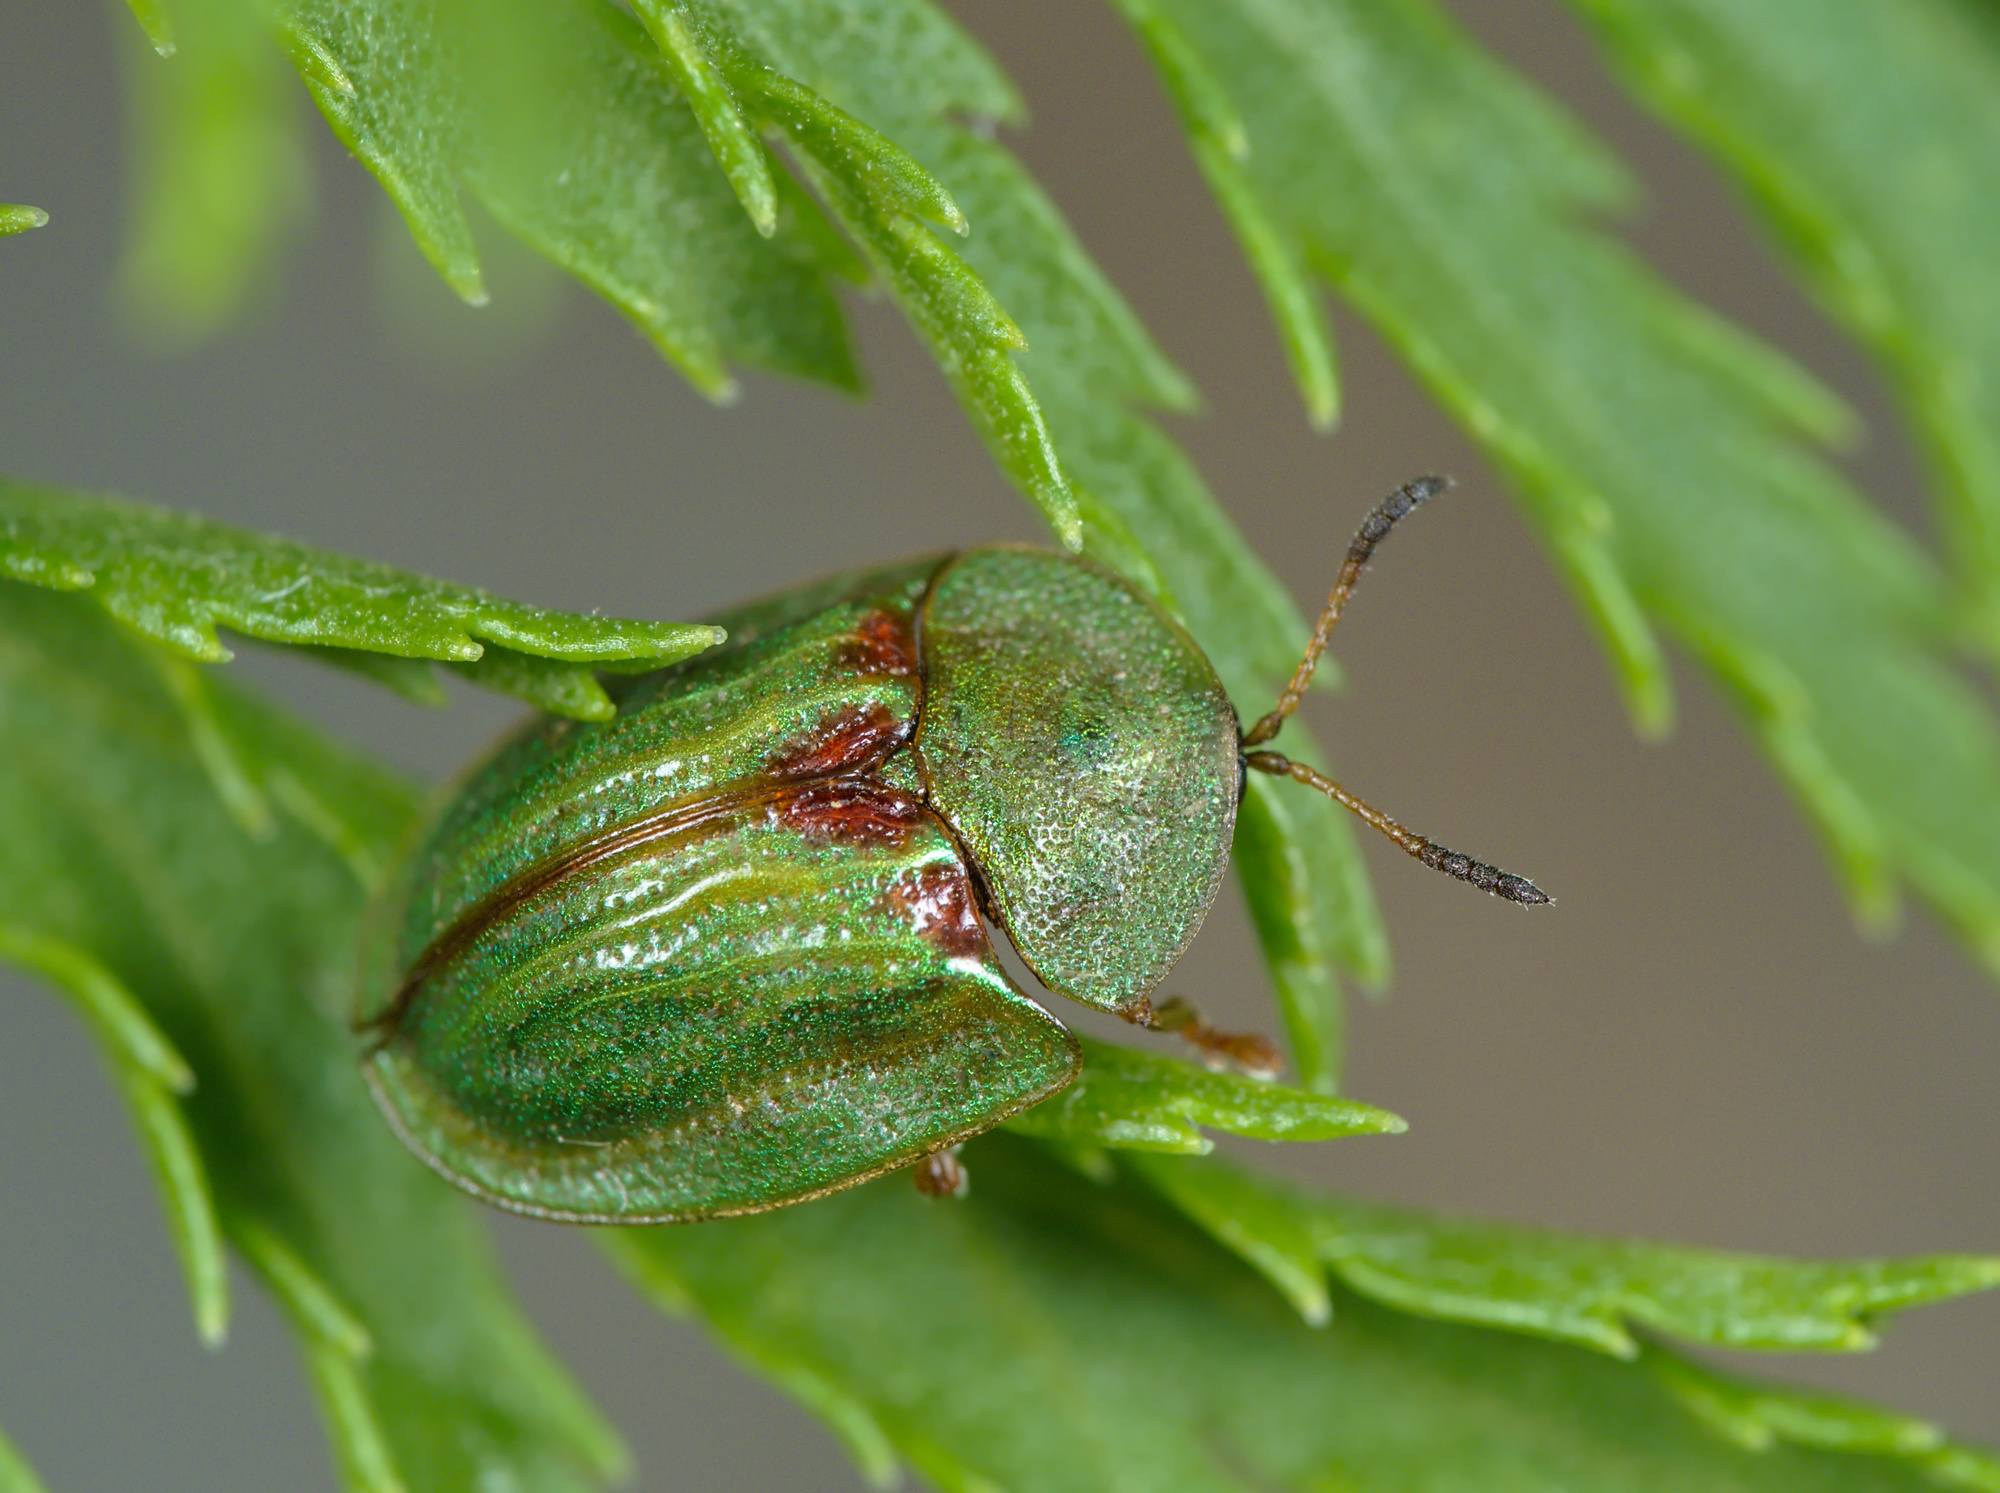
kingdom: Animalia
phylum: Arthropoda
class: Insecta
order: Coleoptera
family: Chrysomelidae
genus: Cassida
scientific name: Cassida stigmatica
